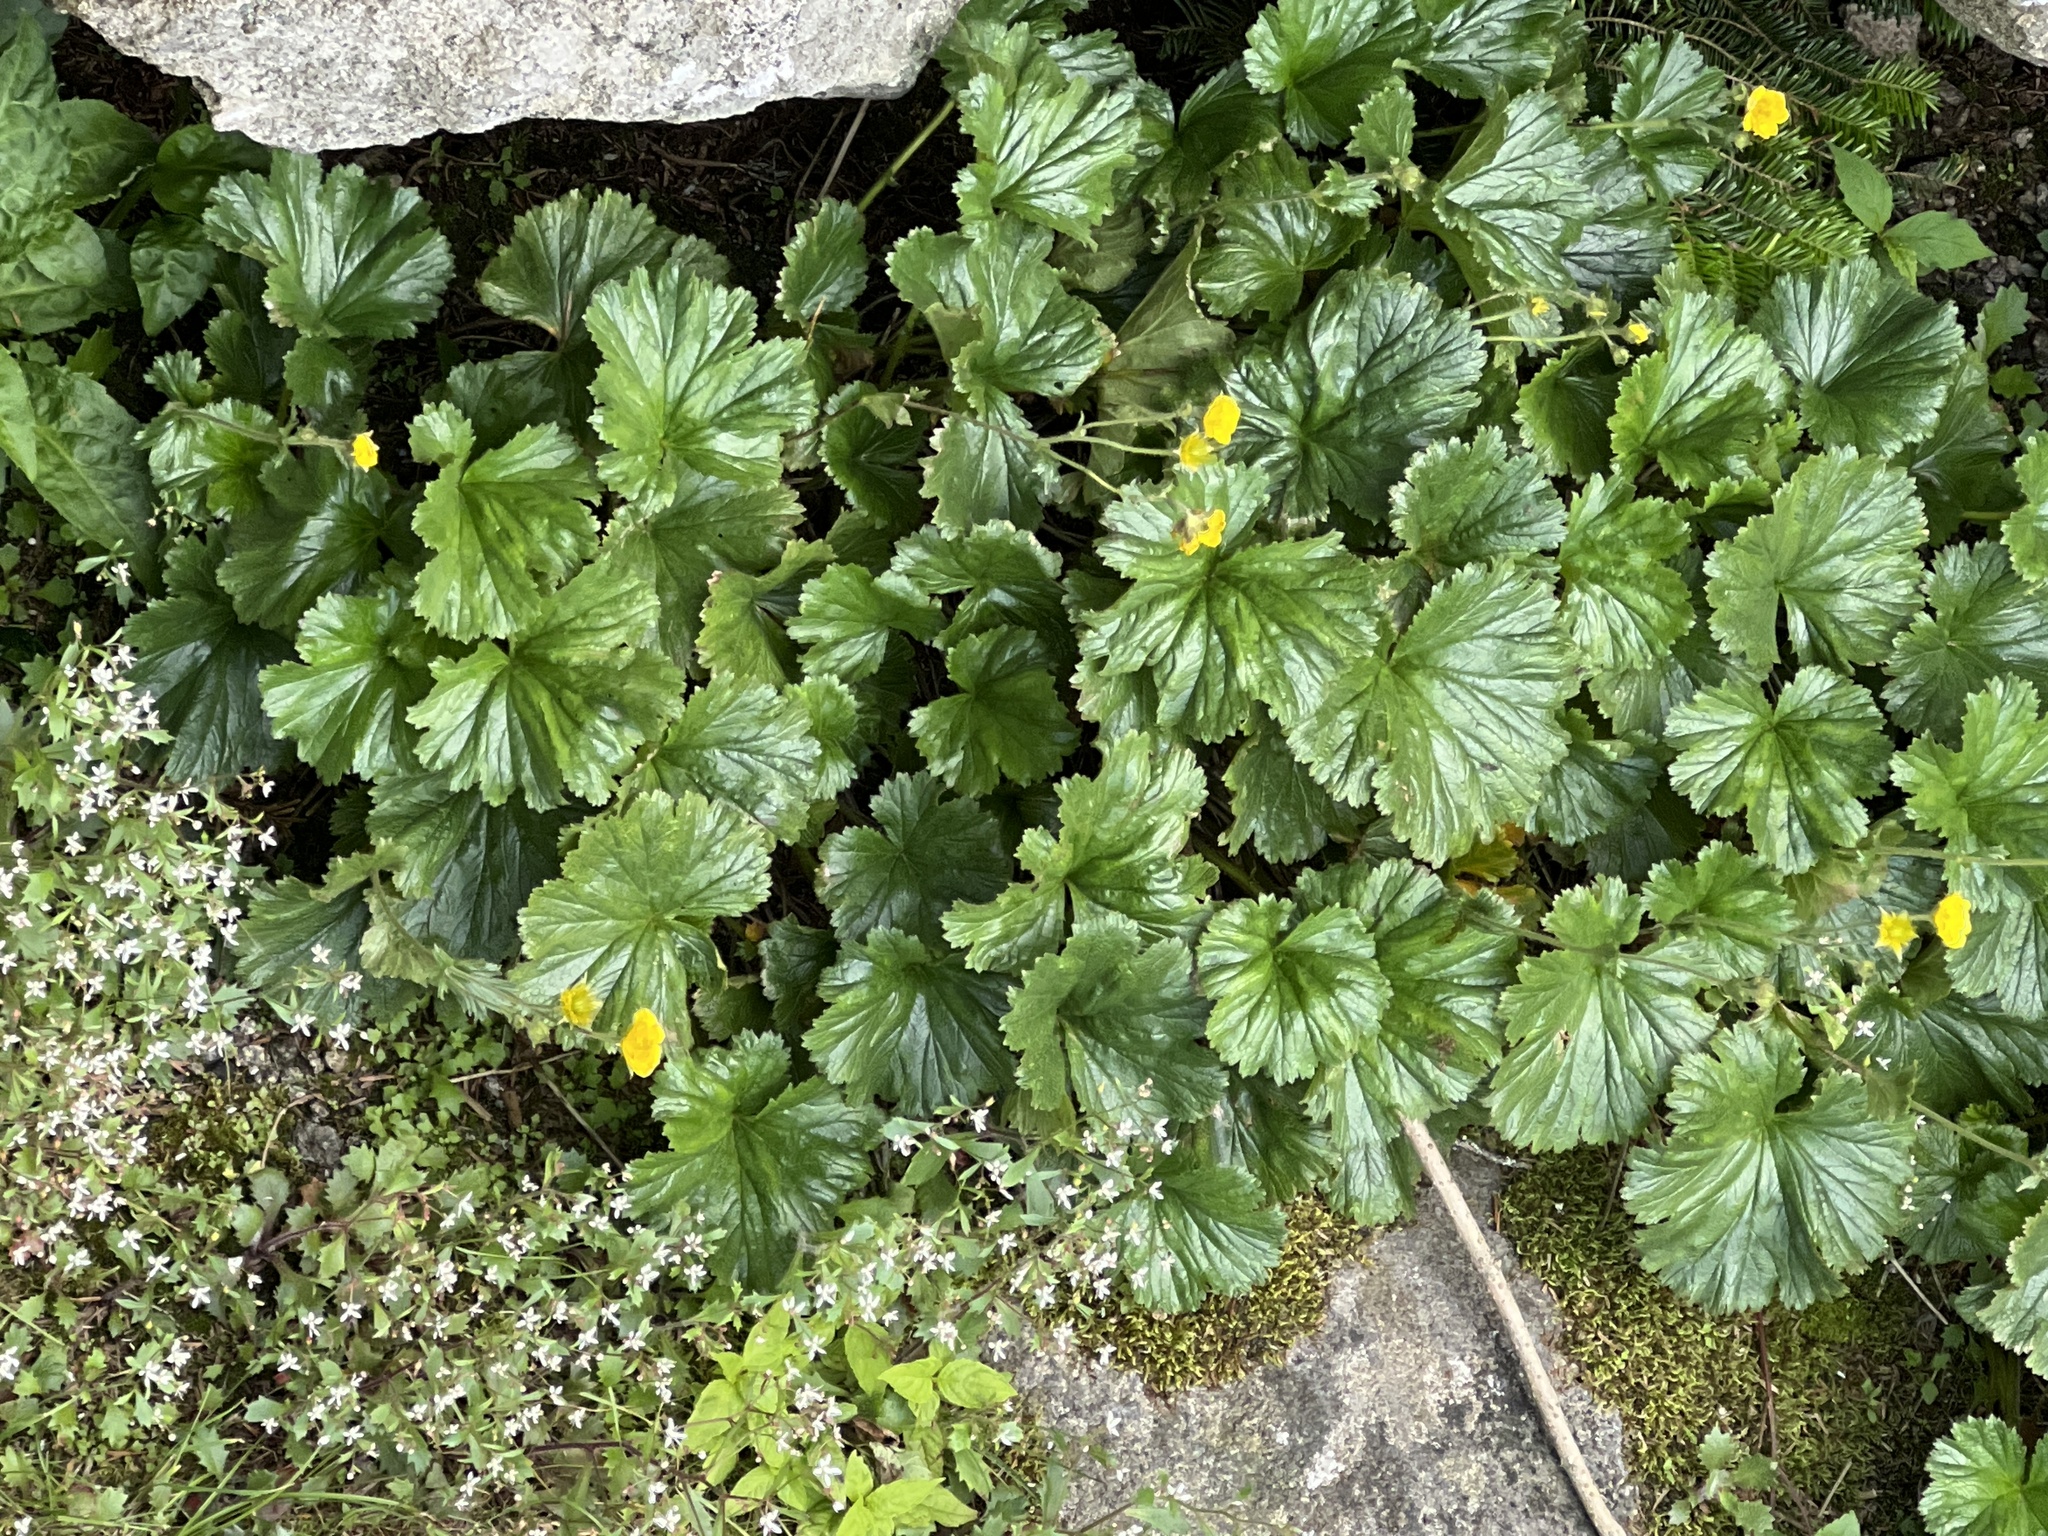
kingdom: Plantae
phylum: Tracheophyta
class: Magnoliopsida
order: Rosales
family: Rosaceae
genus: Geum
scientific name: Geum radiatum
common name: Spreaded avens
